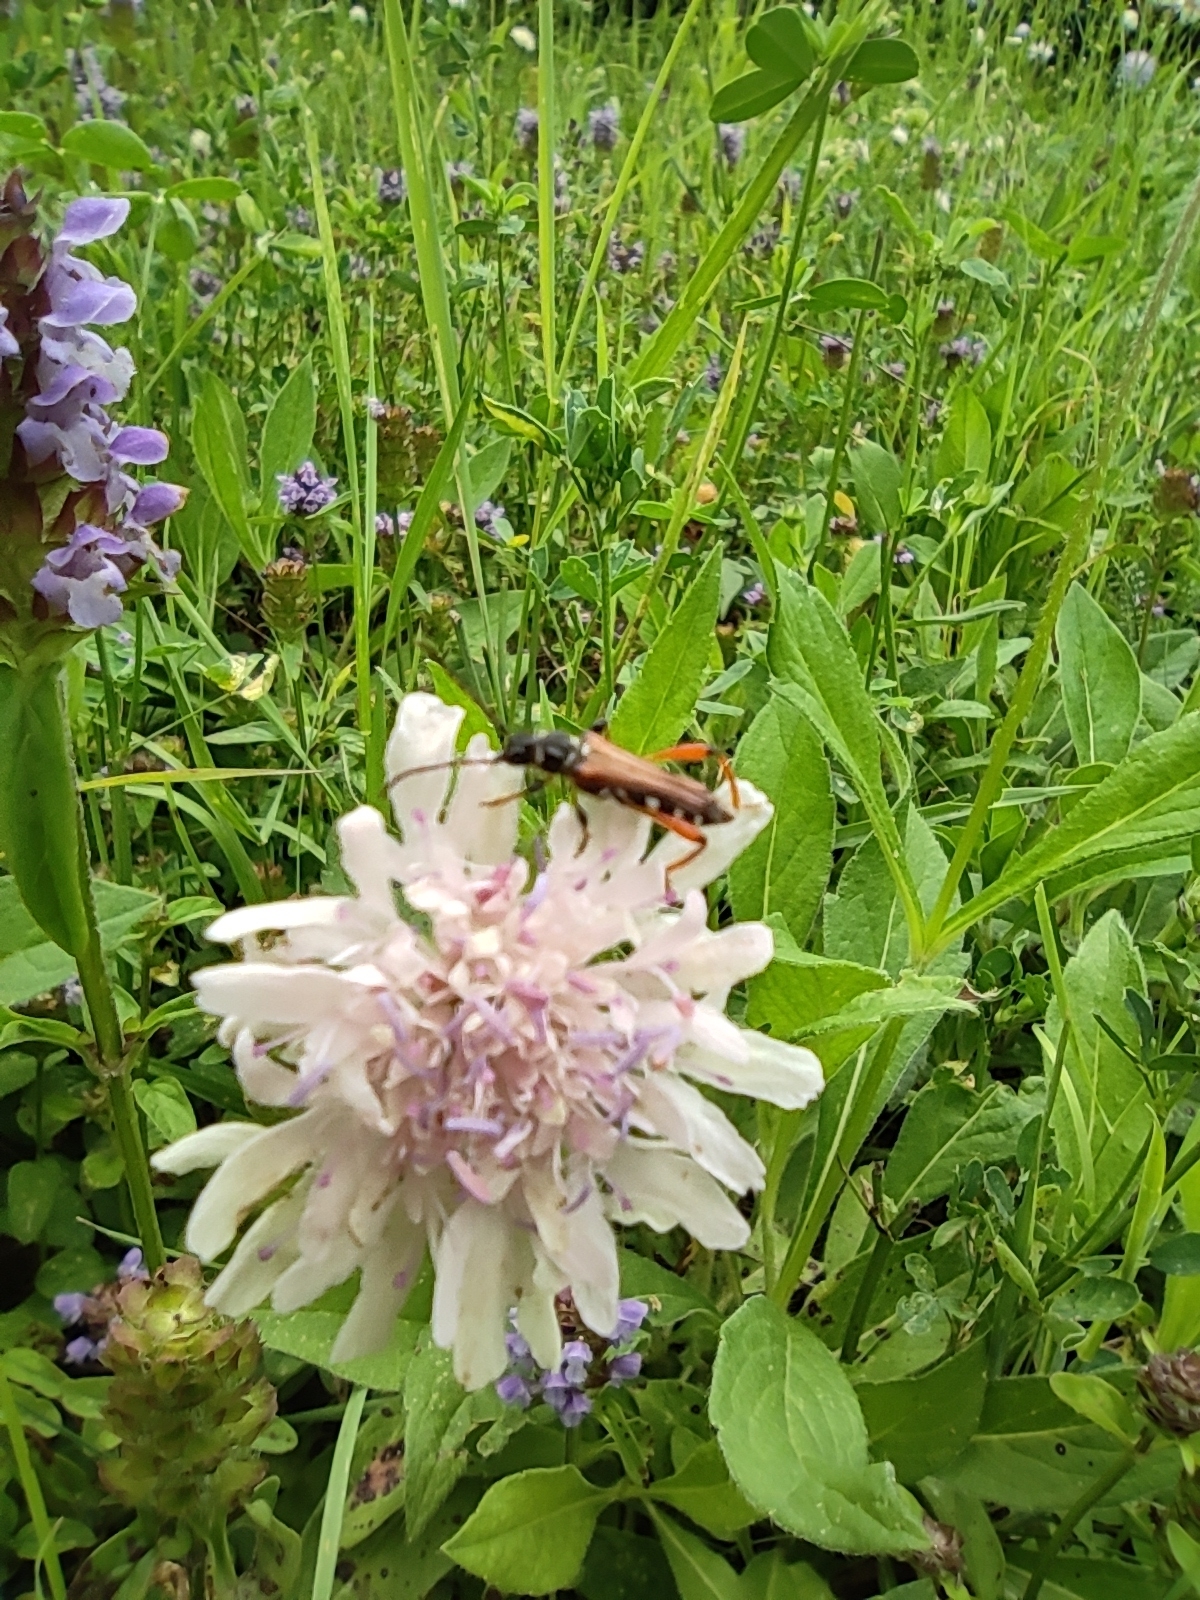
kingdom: Animalia
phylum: Arthropoda
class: Insecta
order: Coleoptera
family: Cerambycidae
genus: Stenopterus
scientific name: Stenopterus rufus
